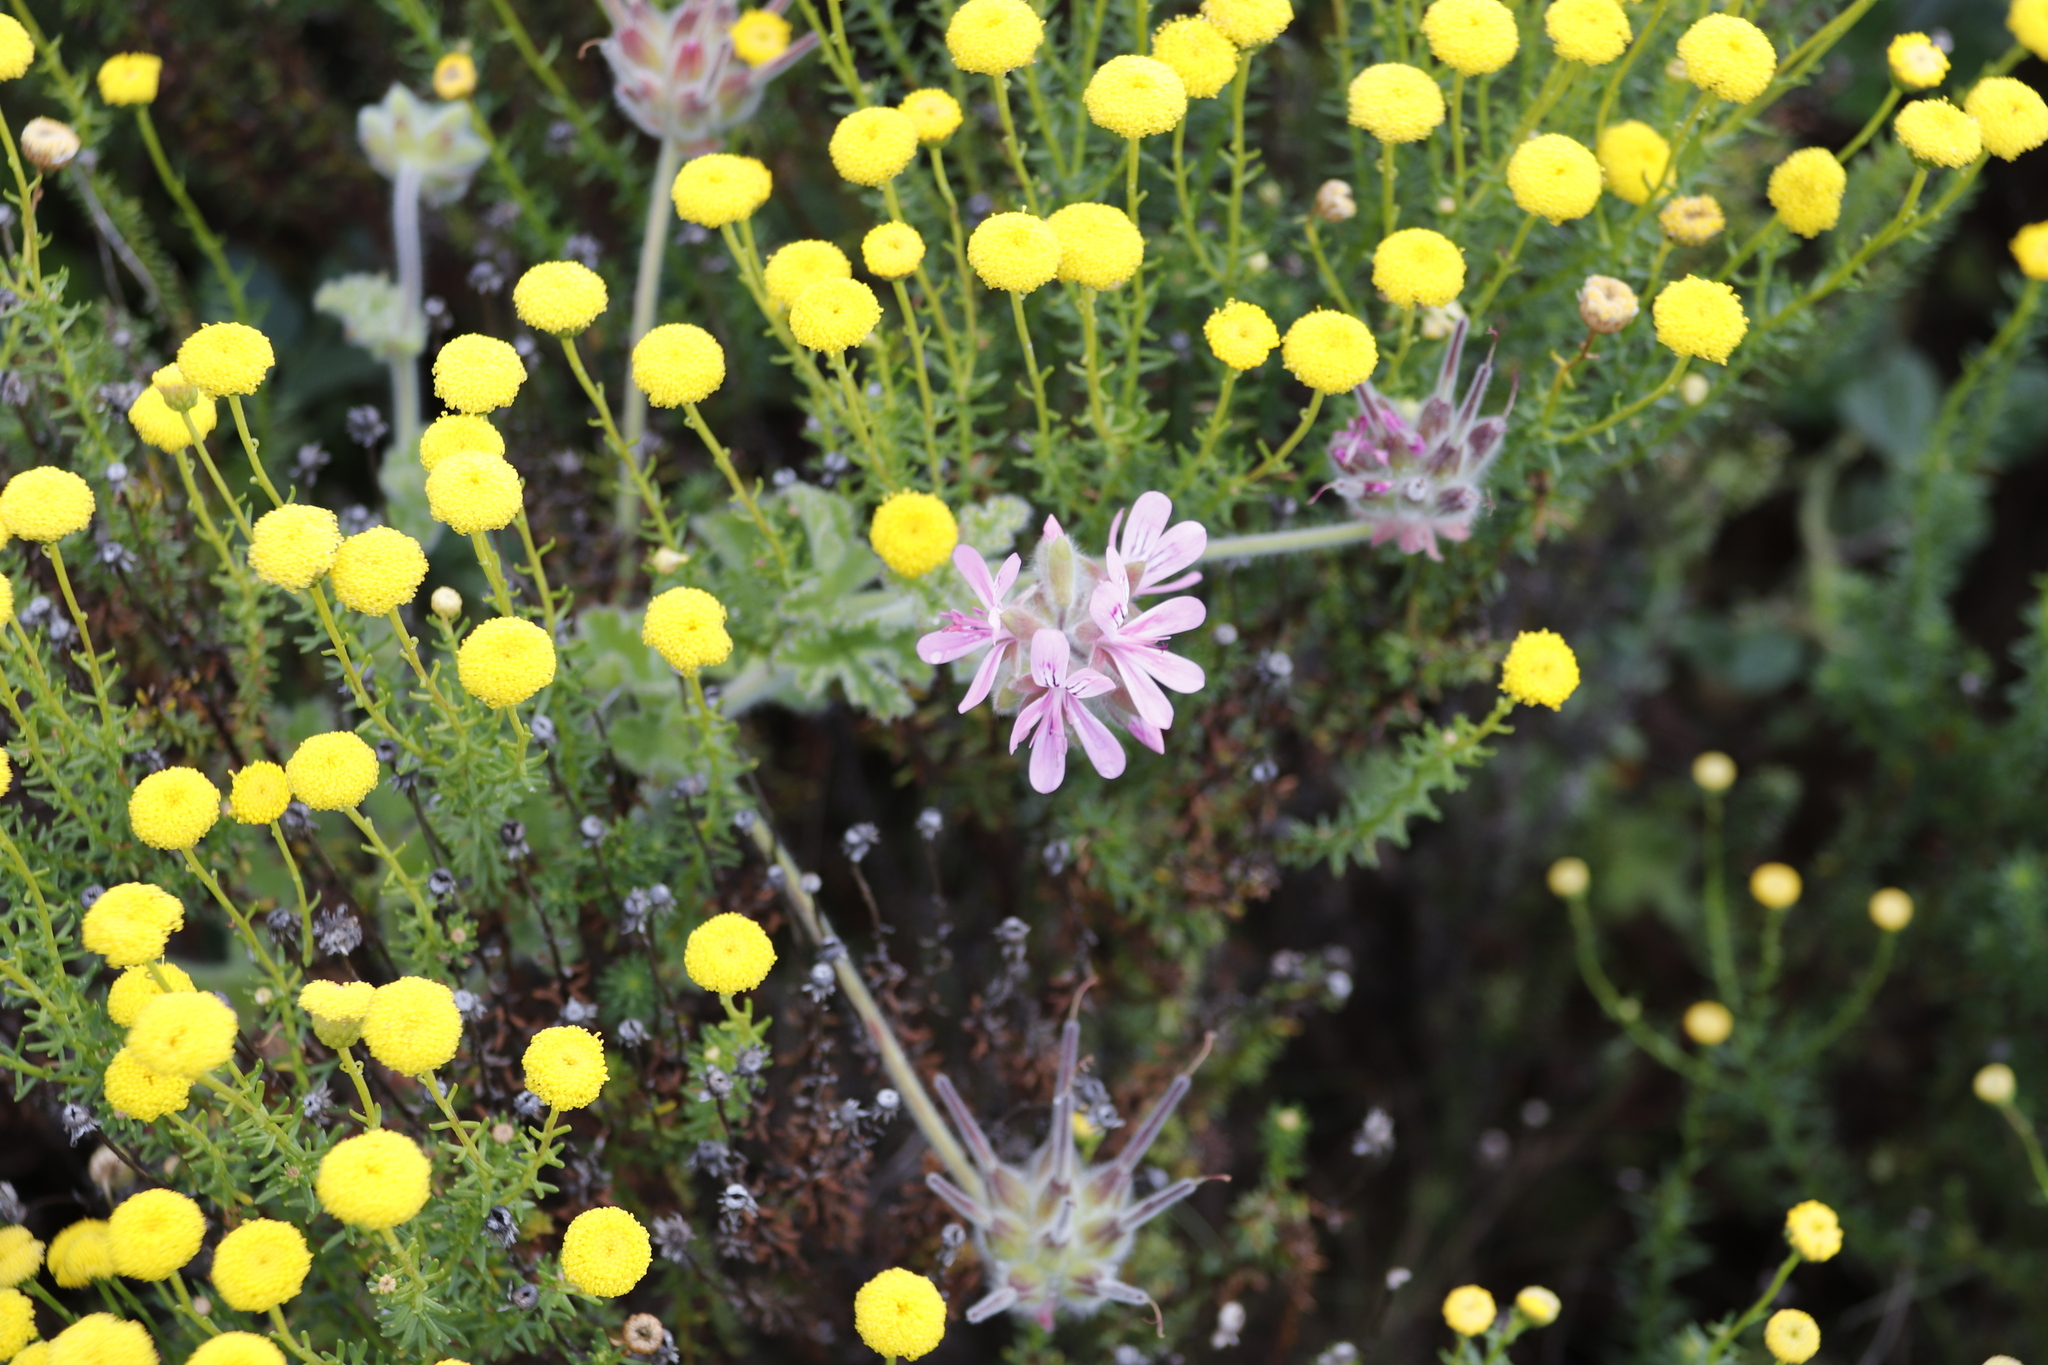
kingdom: Plantae
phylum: Tracheophyta
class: Magnoliopsida
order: Geraniales
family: Geraniaceae
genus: Pelargonium
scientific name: Pelargonium capitatum
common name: Rose scented geranium
